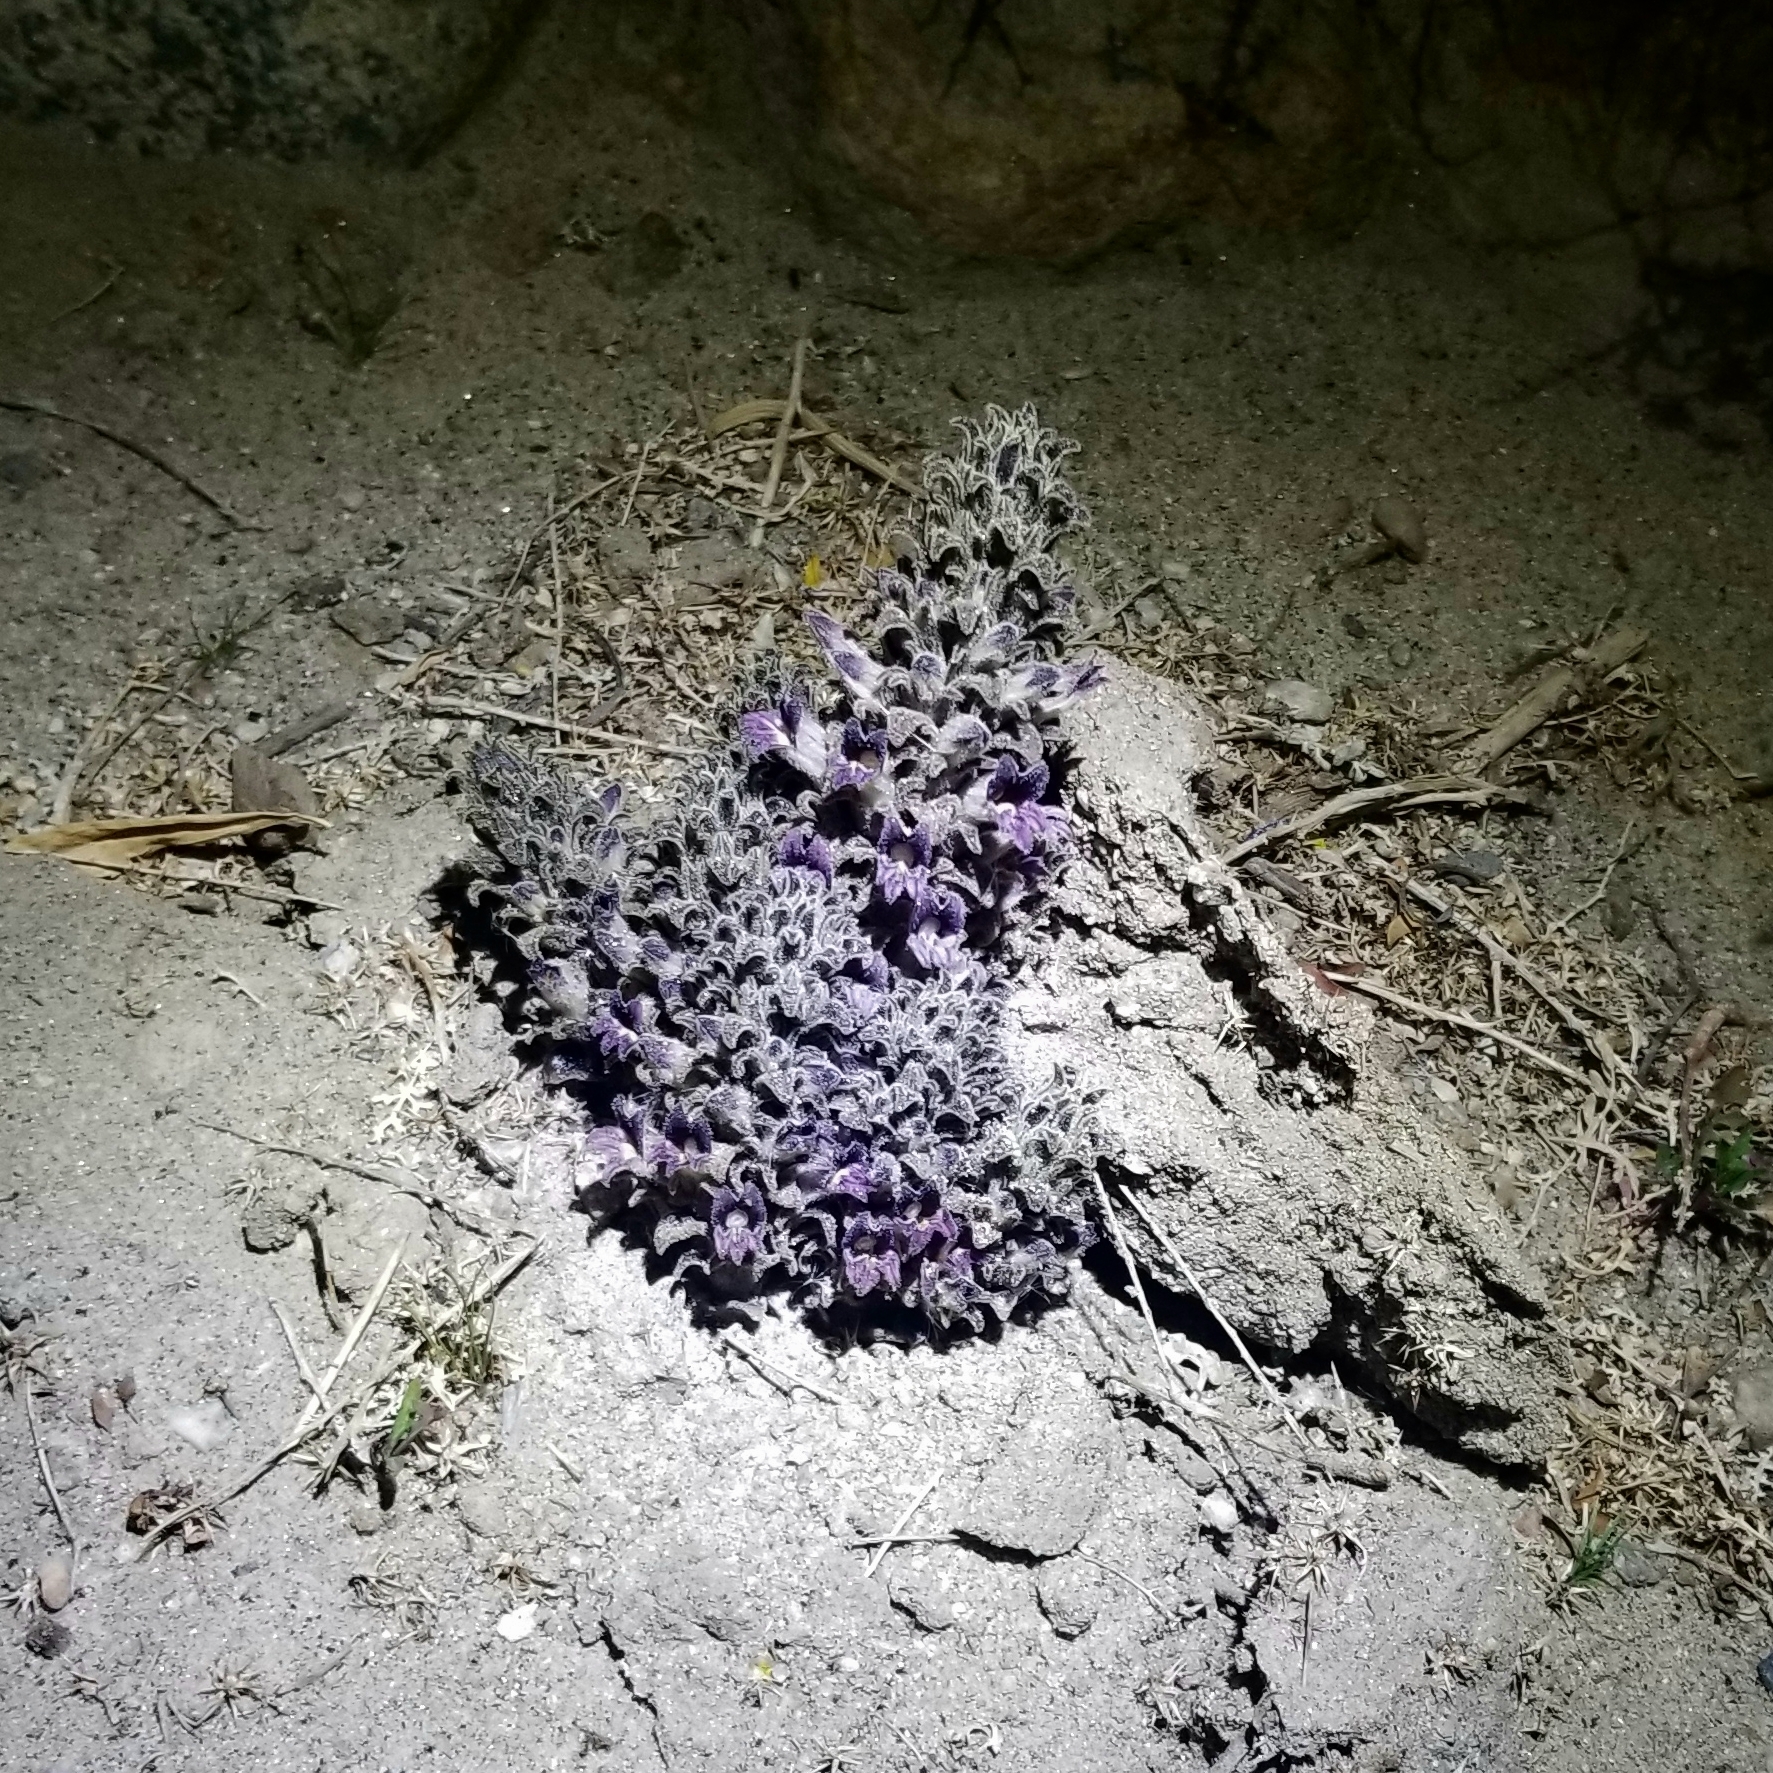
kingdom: Plantae
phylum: Tracheophyta
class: Magnoliopsida
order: Lamiales
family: Orobanchaceae
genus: Aphyllon
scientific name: Aphyllon cooperi
